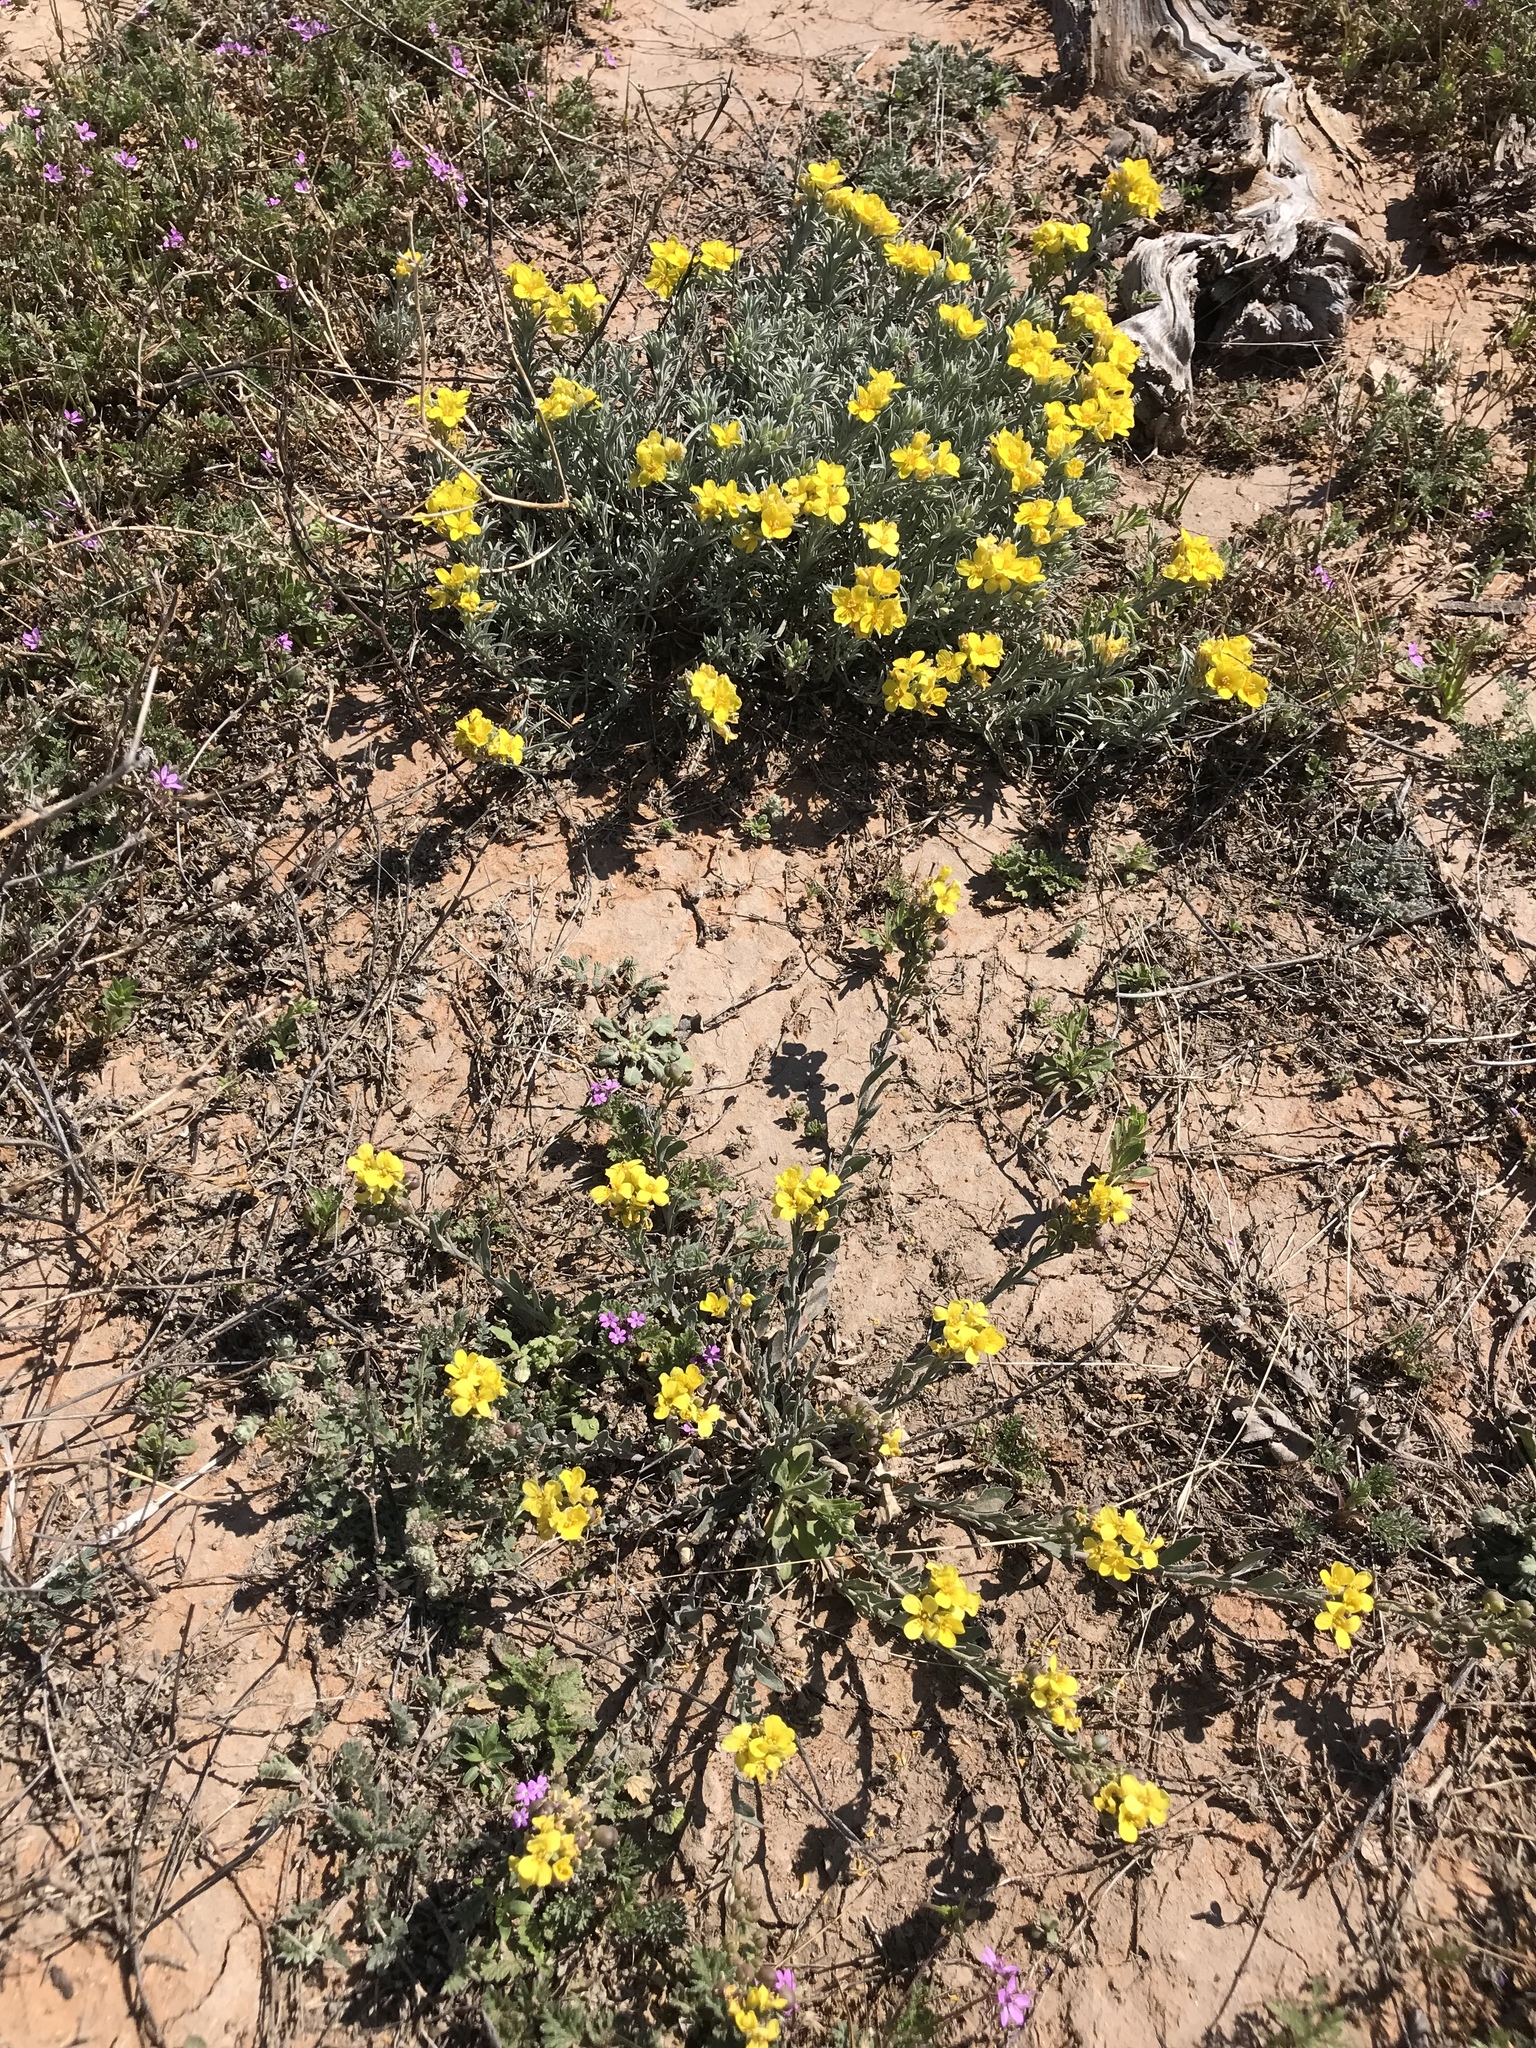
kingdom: Plantae
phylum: Tracheophyta
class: Magnoliopsida
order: Brassicales
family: Brassicaceae
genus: Physaria
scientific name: Physaria gordonii
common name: Gordon's bladderpod
